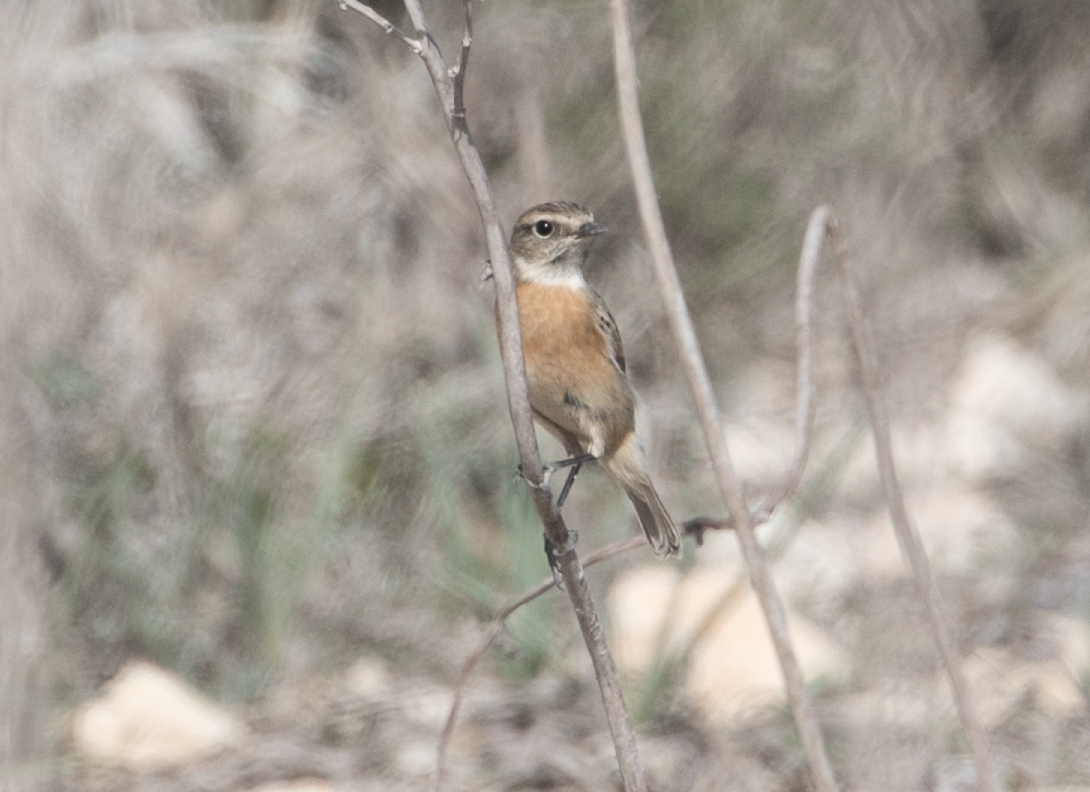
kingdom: Animalia
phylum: Chordata
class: Aves
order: Passeriformes
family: Muscicapidae
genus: Saxicola
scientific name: Saxicola rubicola
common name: European stonechat
